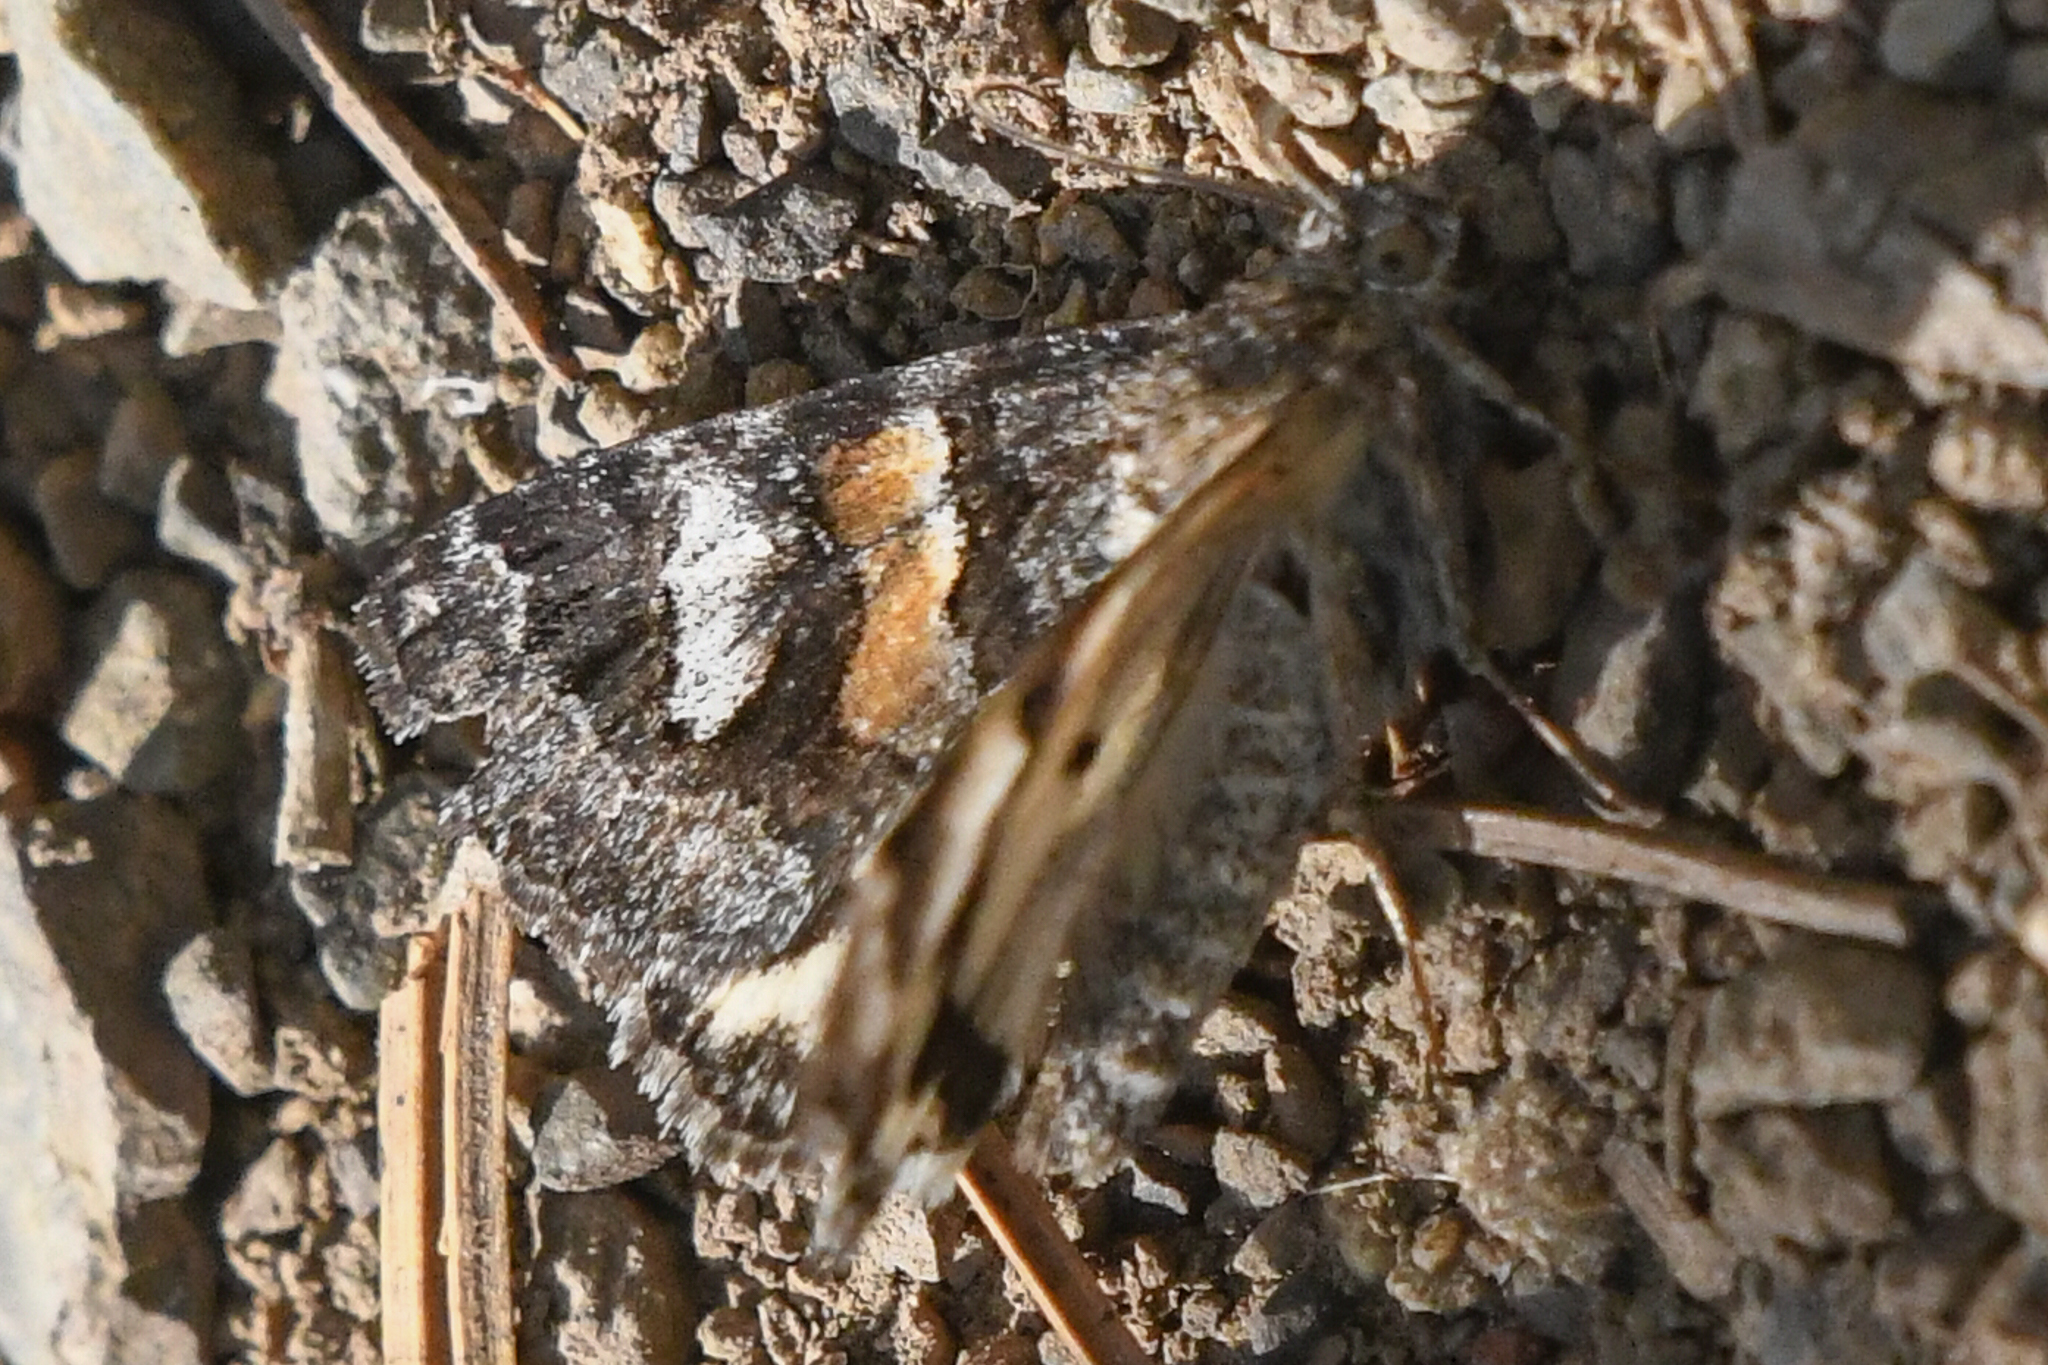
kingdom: Animalia
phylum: Arthropoda
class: Insecta
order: Lepidoptera
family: Erebidae
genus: Drasteria
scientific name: Drasteria hudsonica
